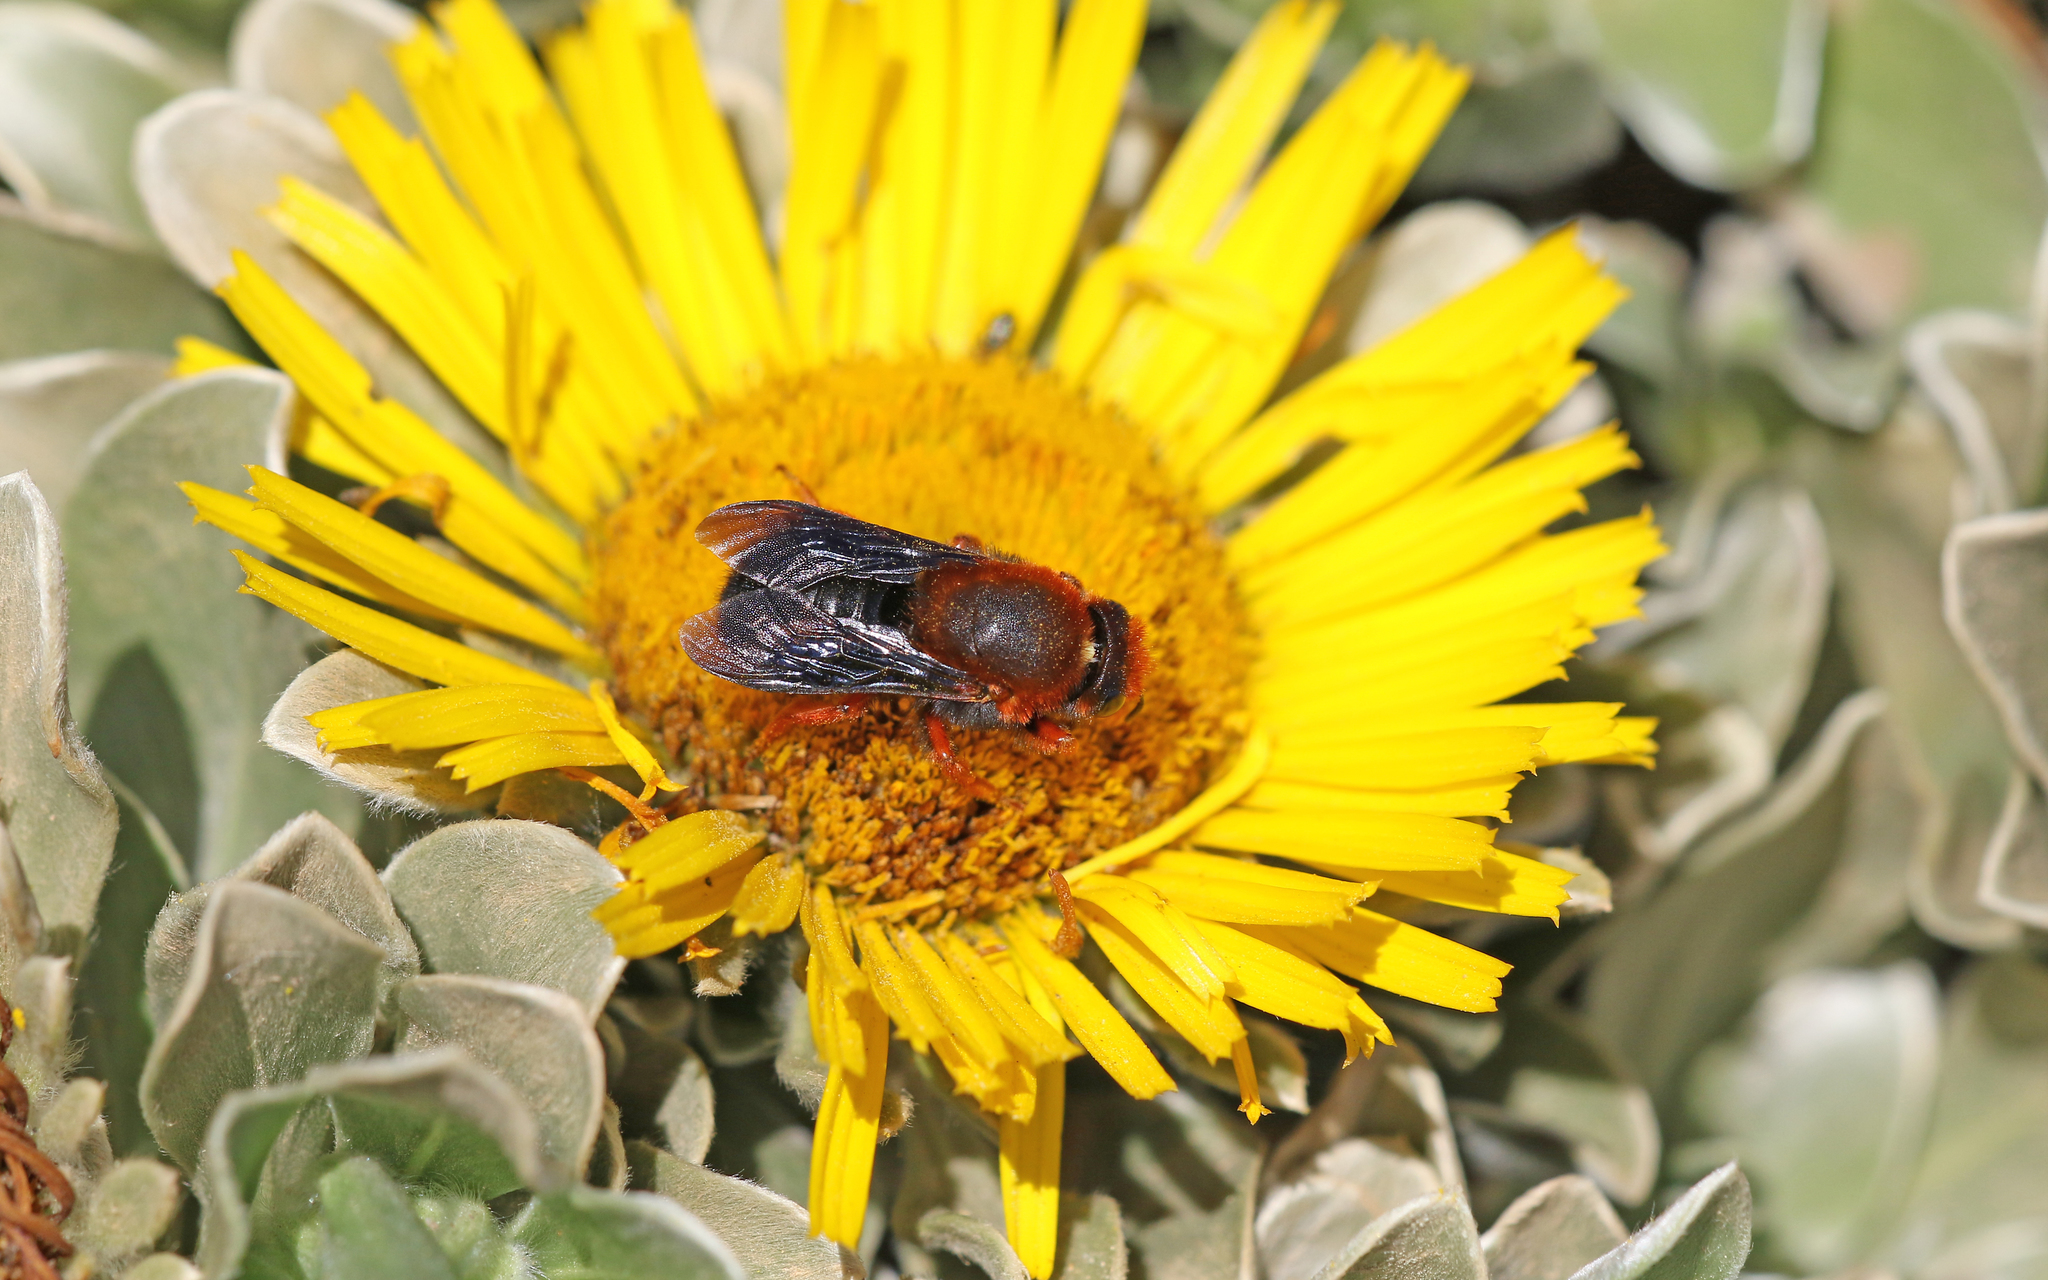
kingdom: Animalia
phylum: Arthropoda
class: Insecta
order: Hymenoptera
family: Megachilidae
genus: Megachile
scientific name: Megachile sicula
